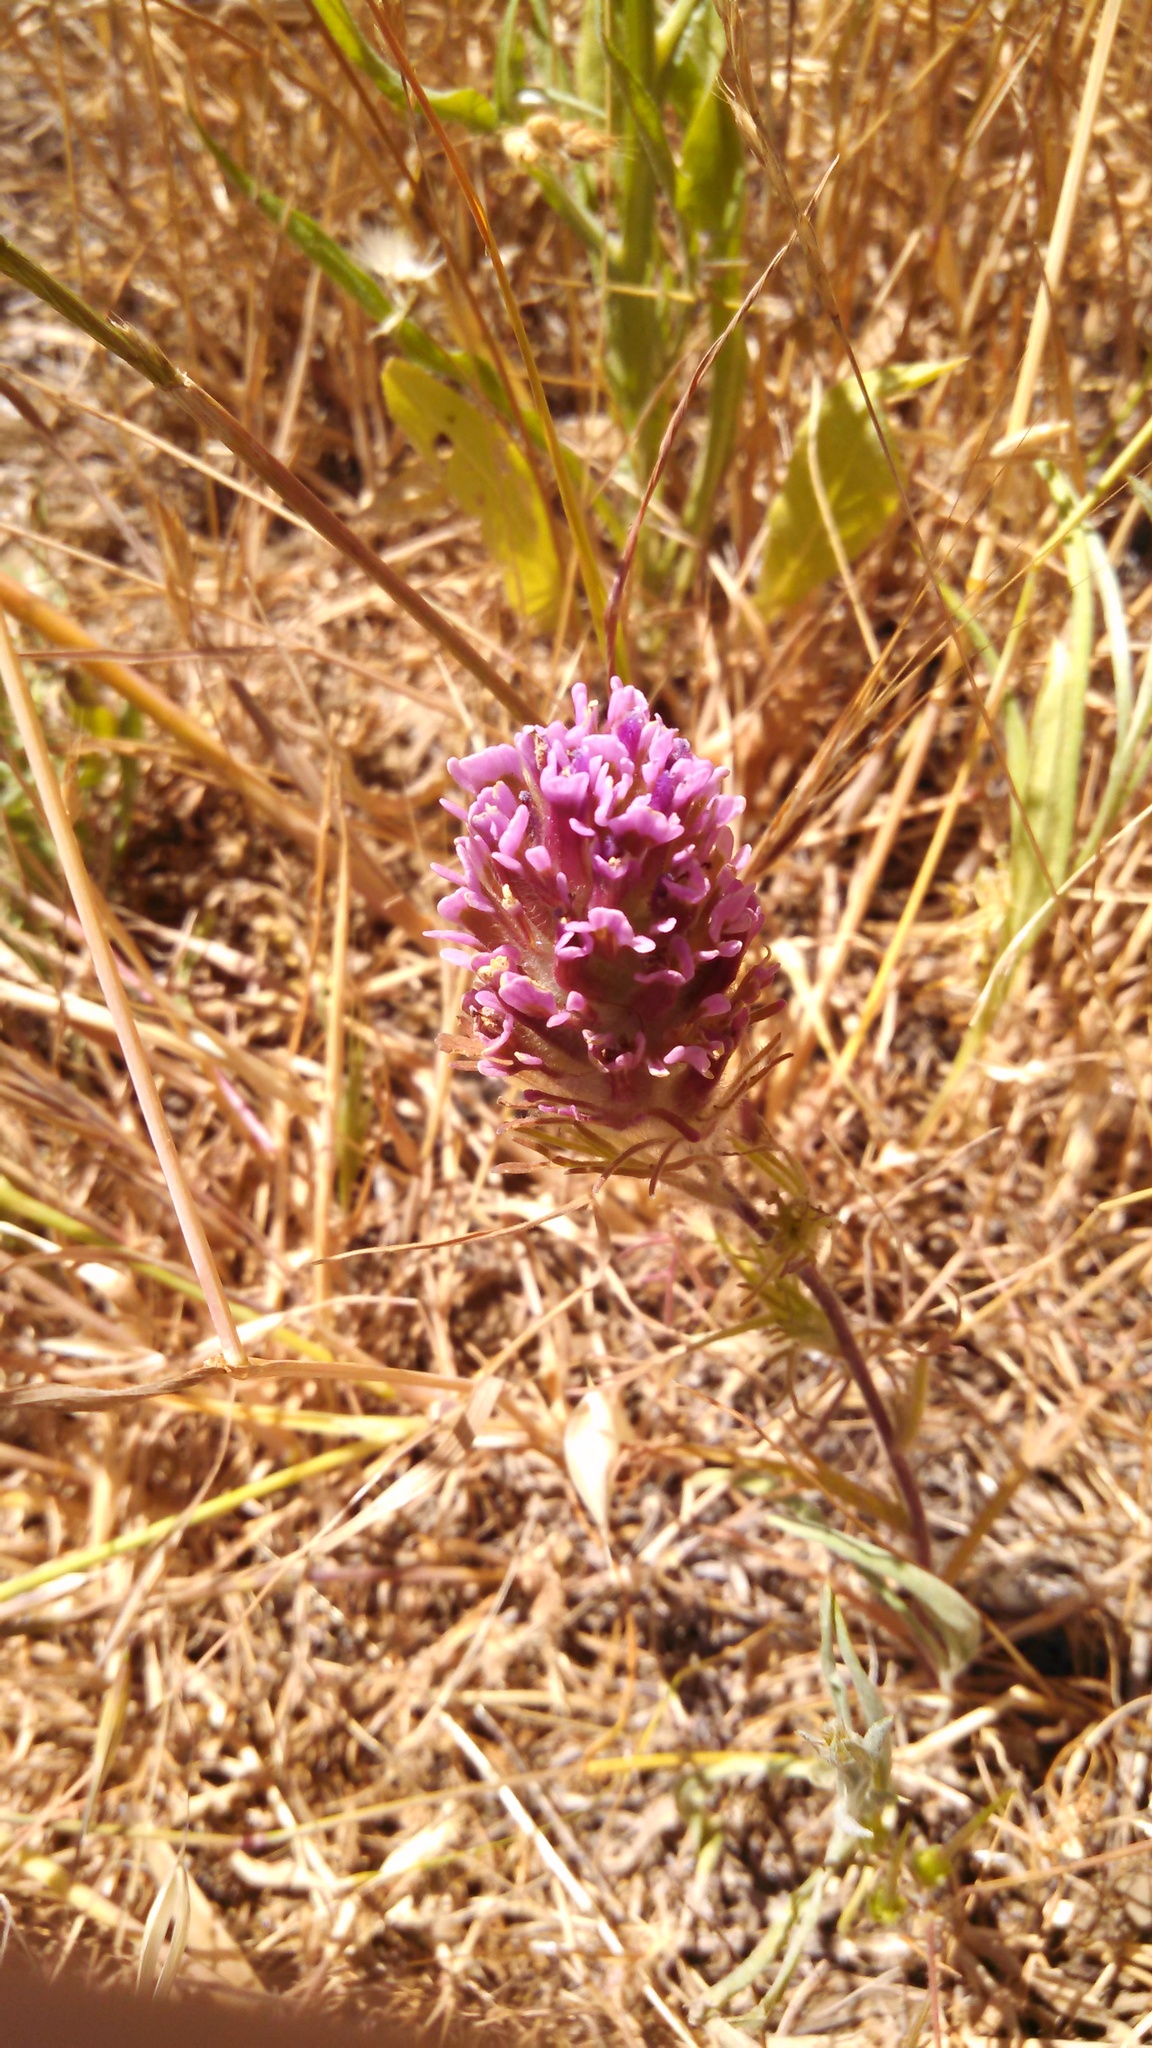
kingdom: Plantae
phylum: Tracheophyta
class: Magnoliopsida
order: Lamiales
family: Orobanchaceae
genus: Castilleja
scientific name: Castilleja exserta
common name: Purple owl-clover
